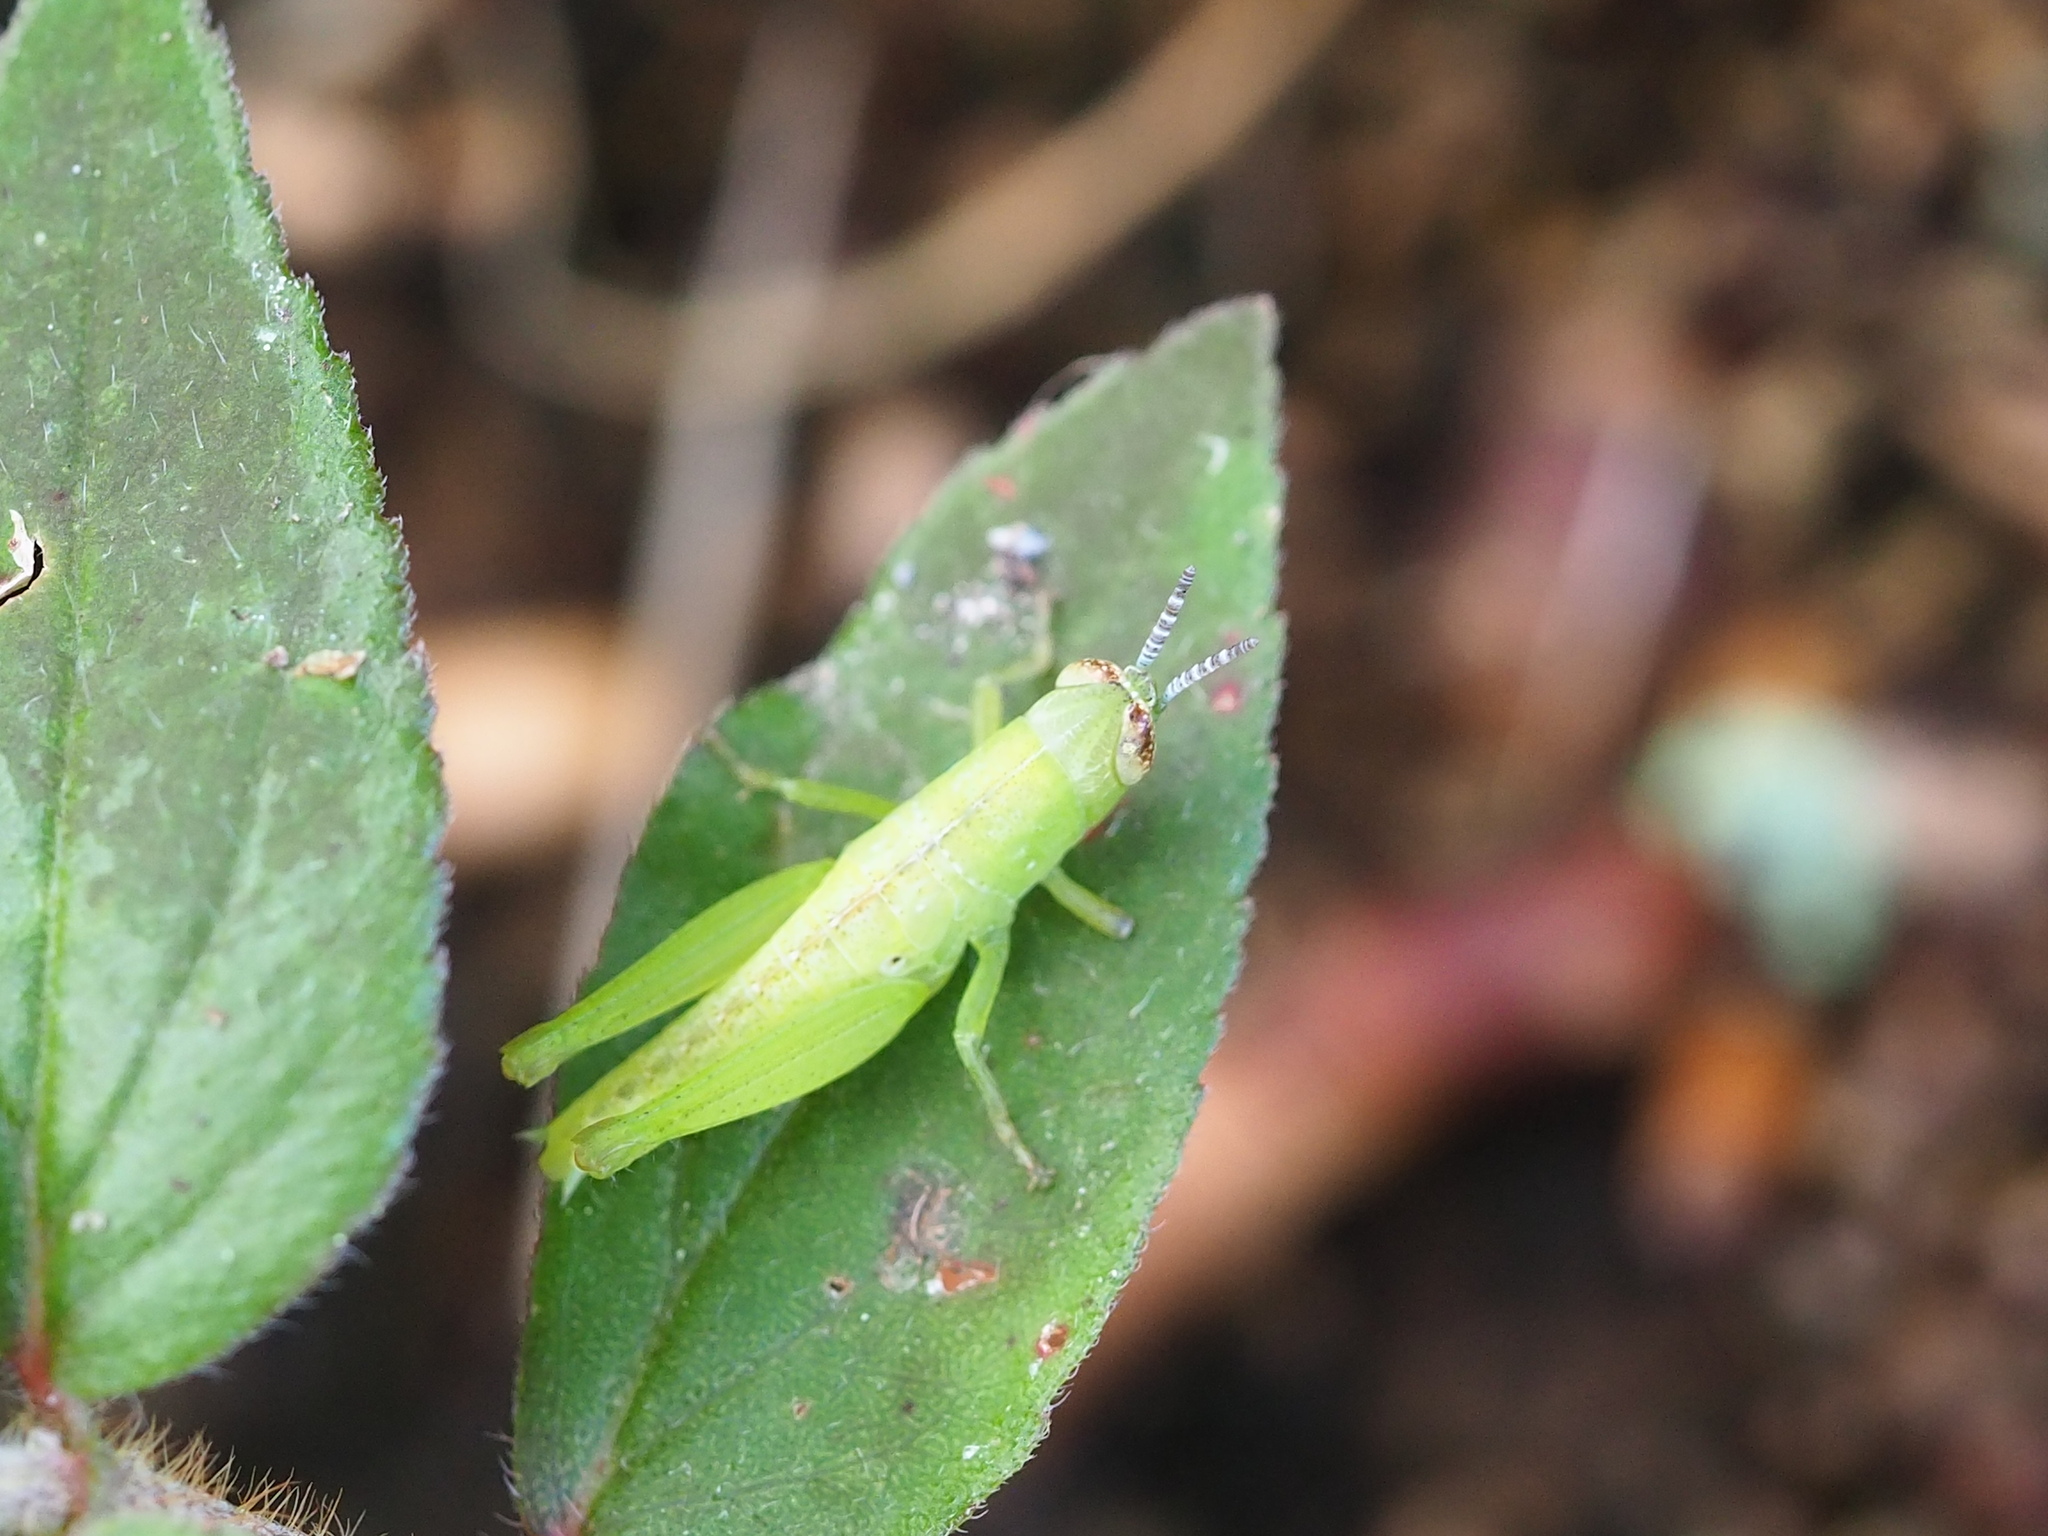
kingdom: Animalia
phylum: Arthropoda
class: Insecta
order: Orthoptera
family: Acrididae
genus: Pseudoxya
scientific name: Pseudoxya diminuta
